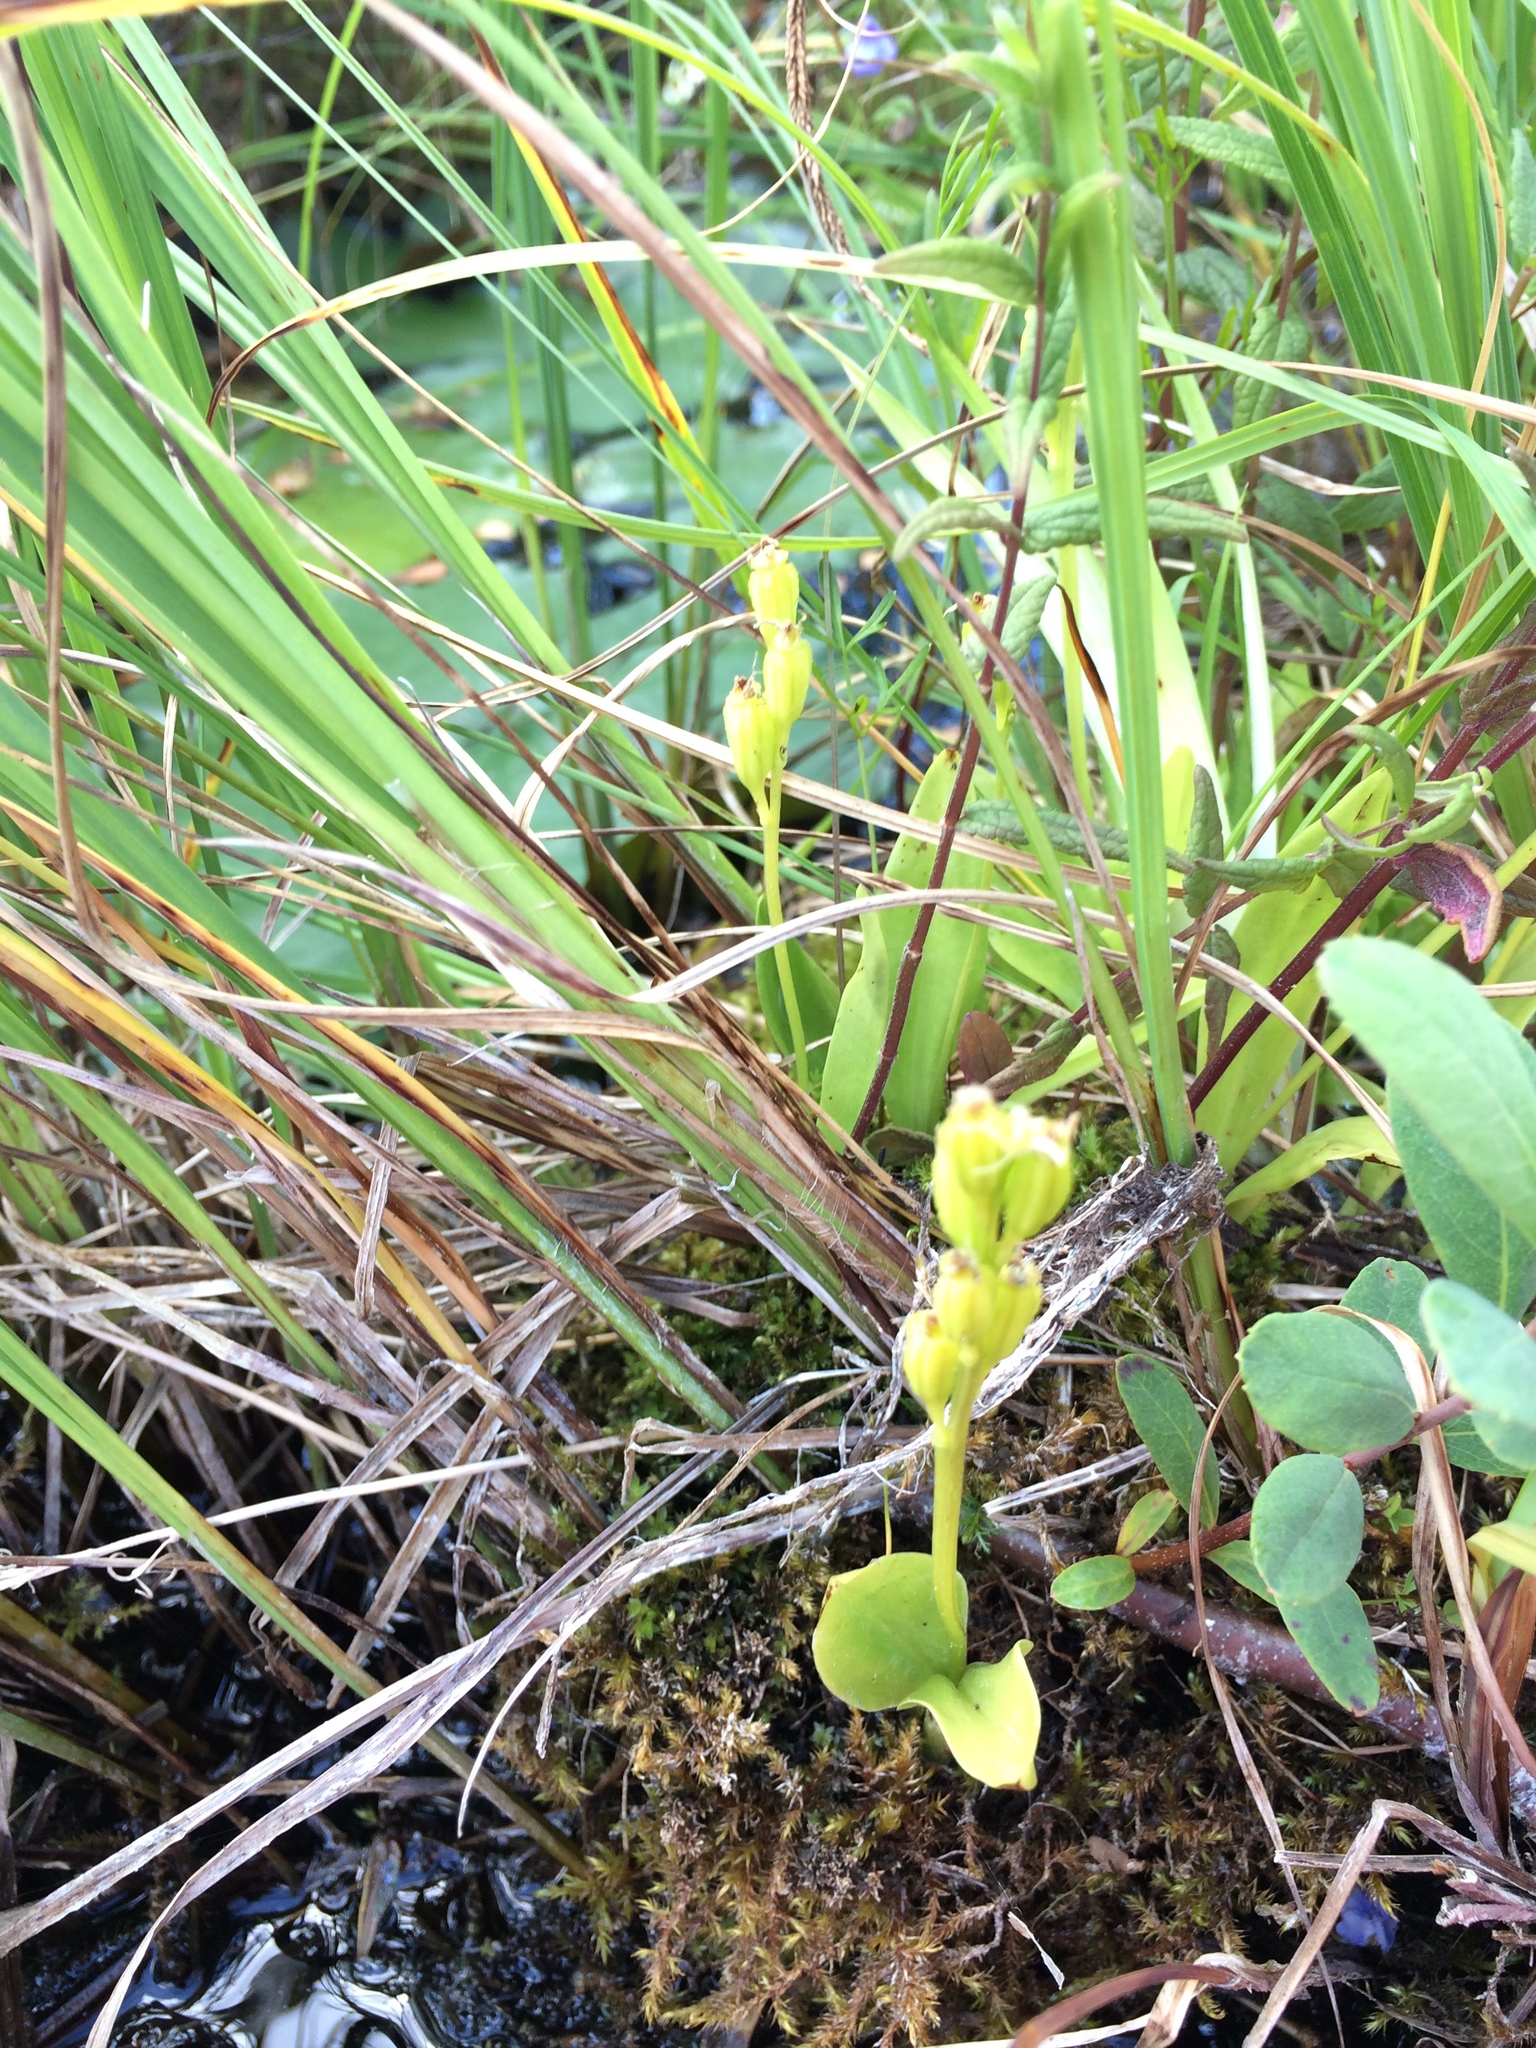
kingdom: Animalia
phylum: Arthropoda
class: Insecta
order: Coleoptera
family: Curculionidae
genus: Liparis
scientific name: Liparis loeselii
